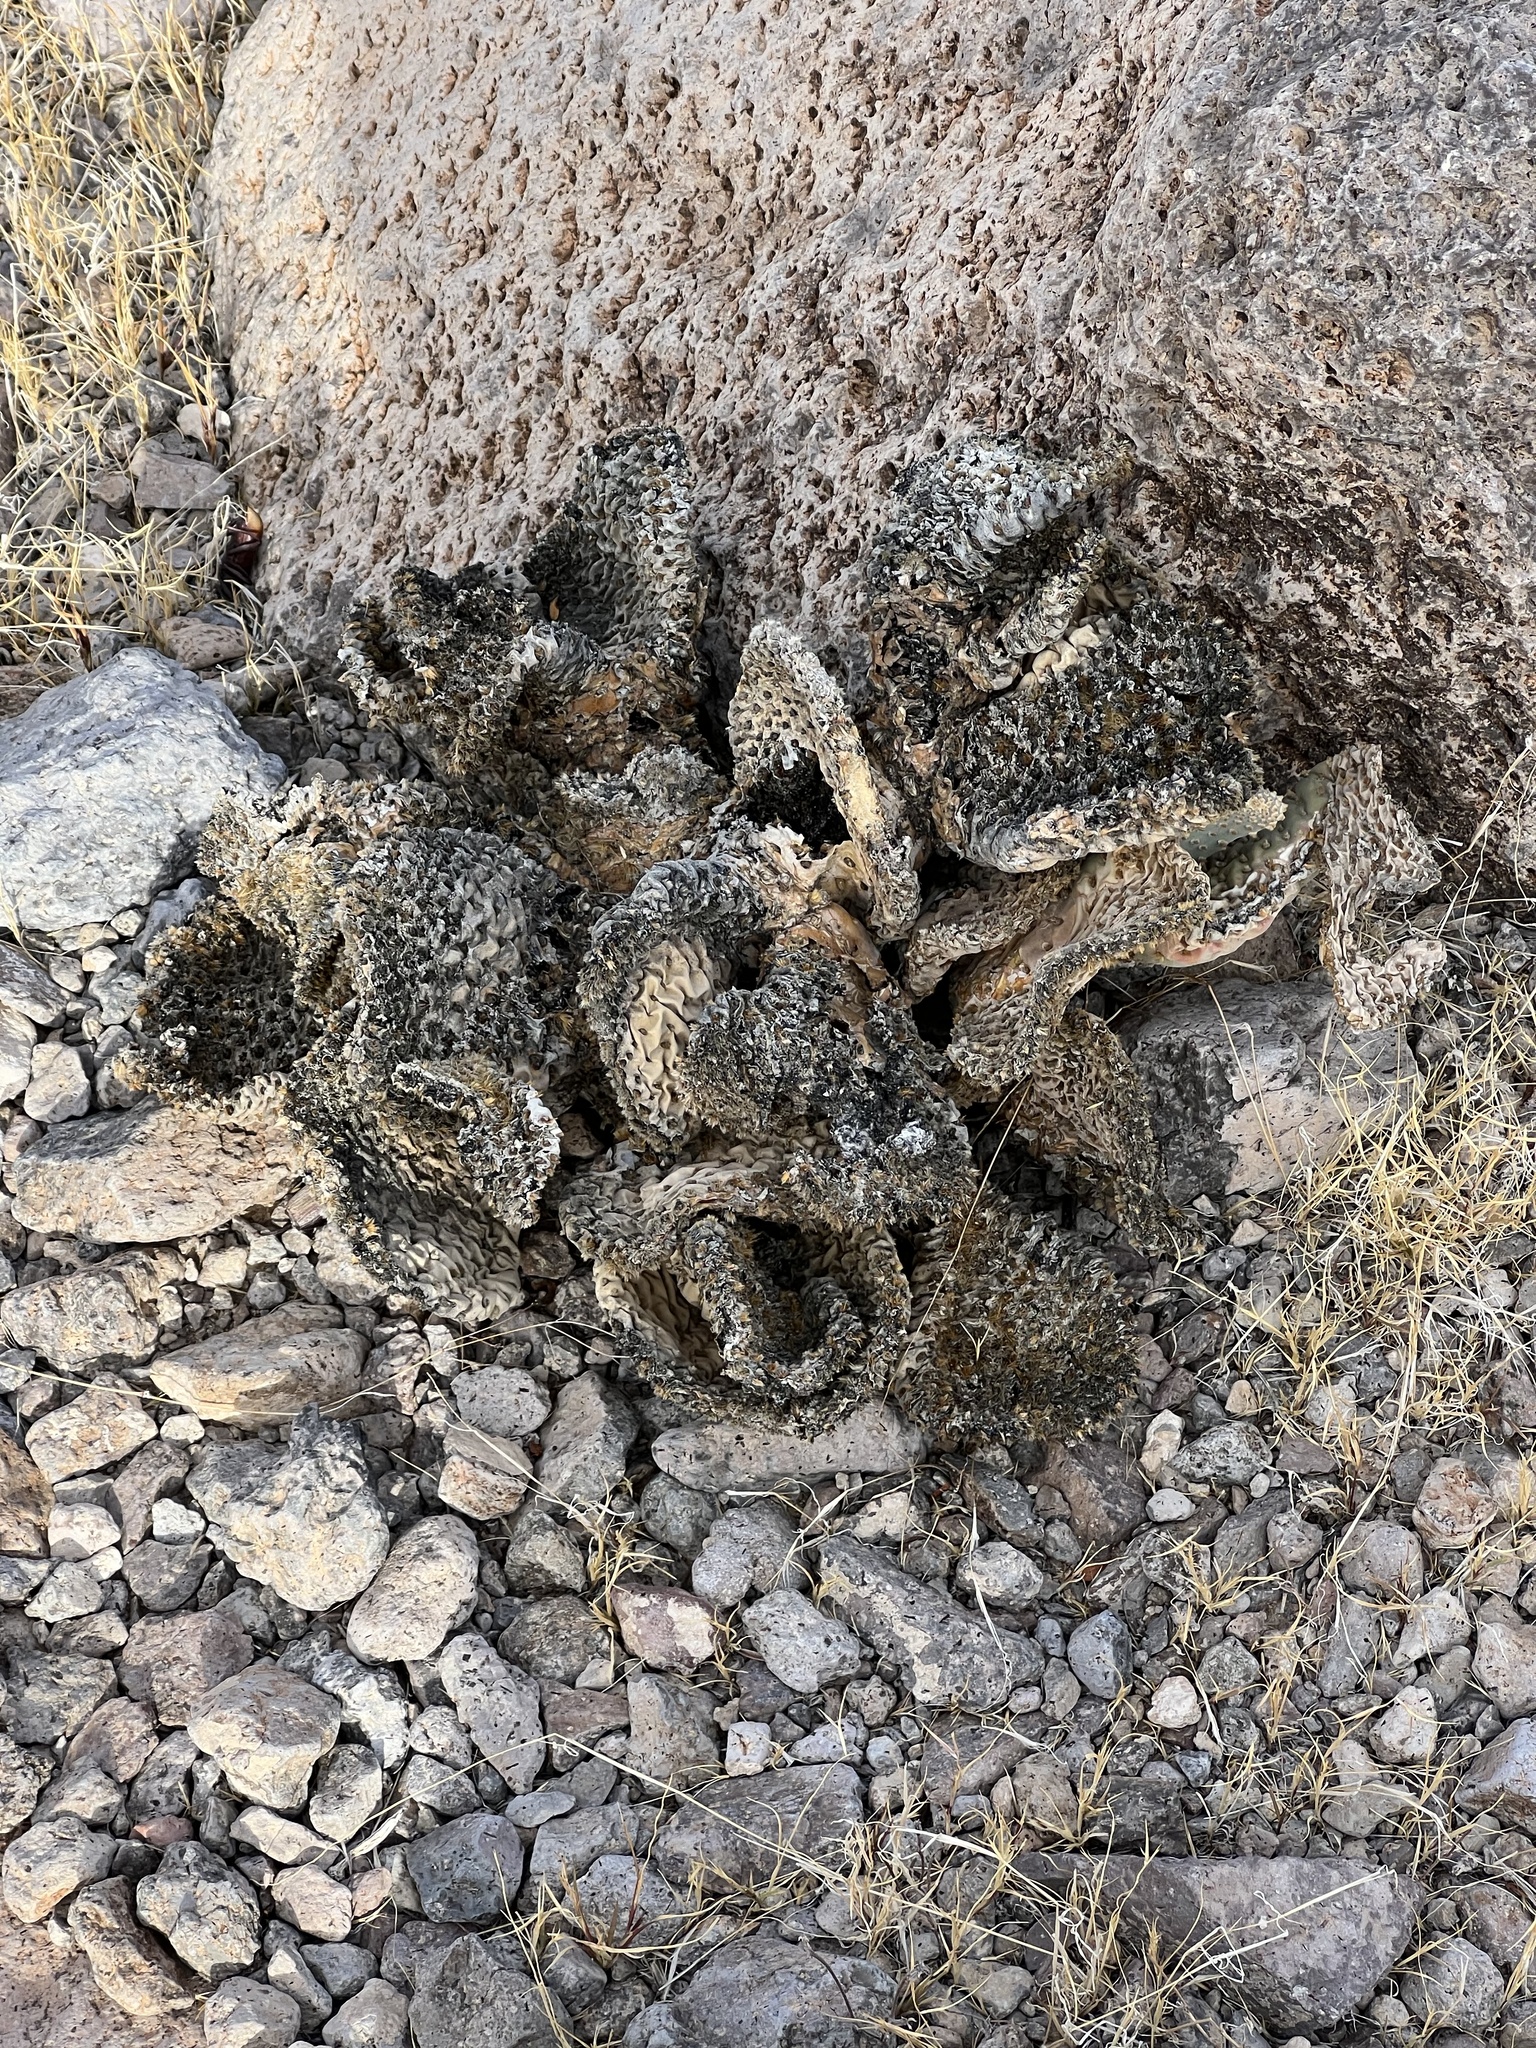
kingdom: Plantae
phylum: Tracheophyta
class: Magnoliopsida
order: Caryophyllales
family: Cactaceae
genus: Opuntia
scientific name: Opuntia basilaris
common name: Beavertail prickly-pear
